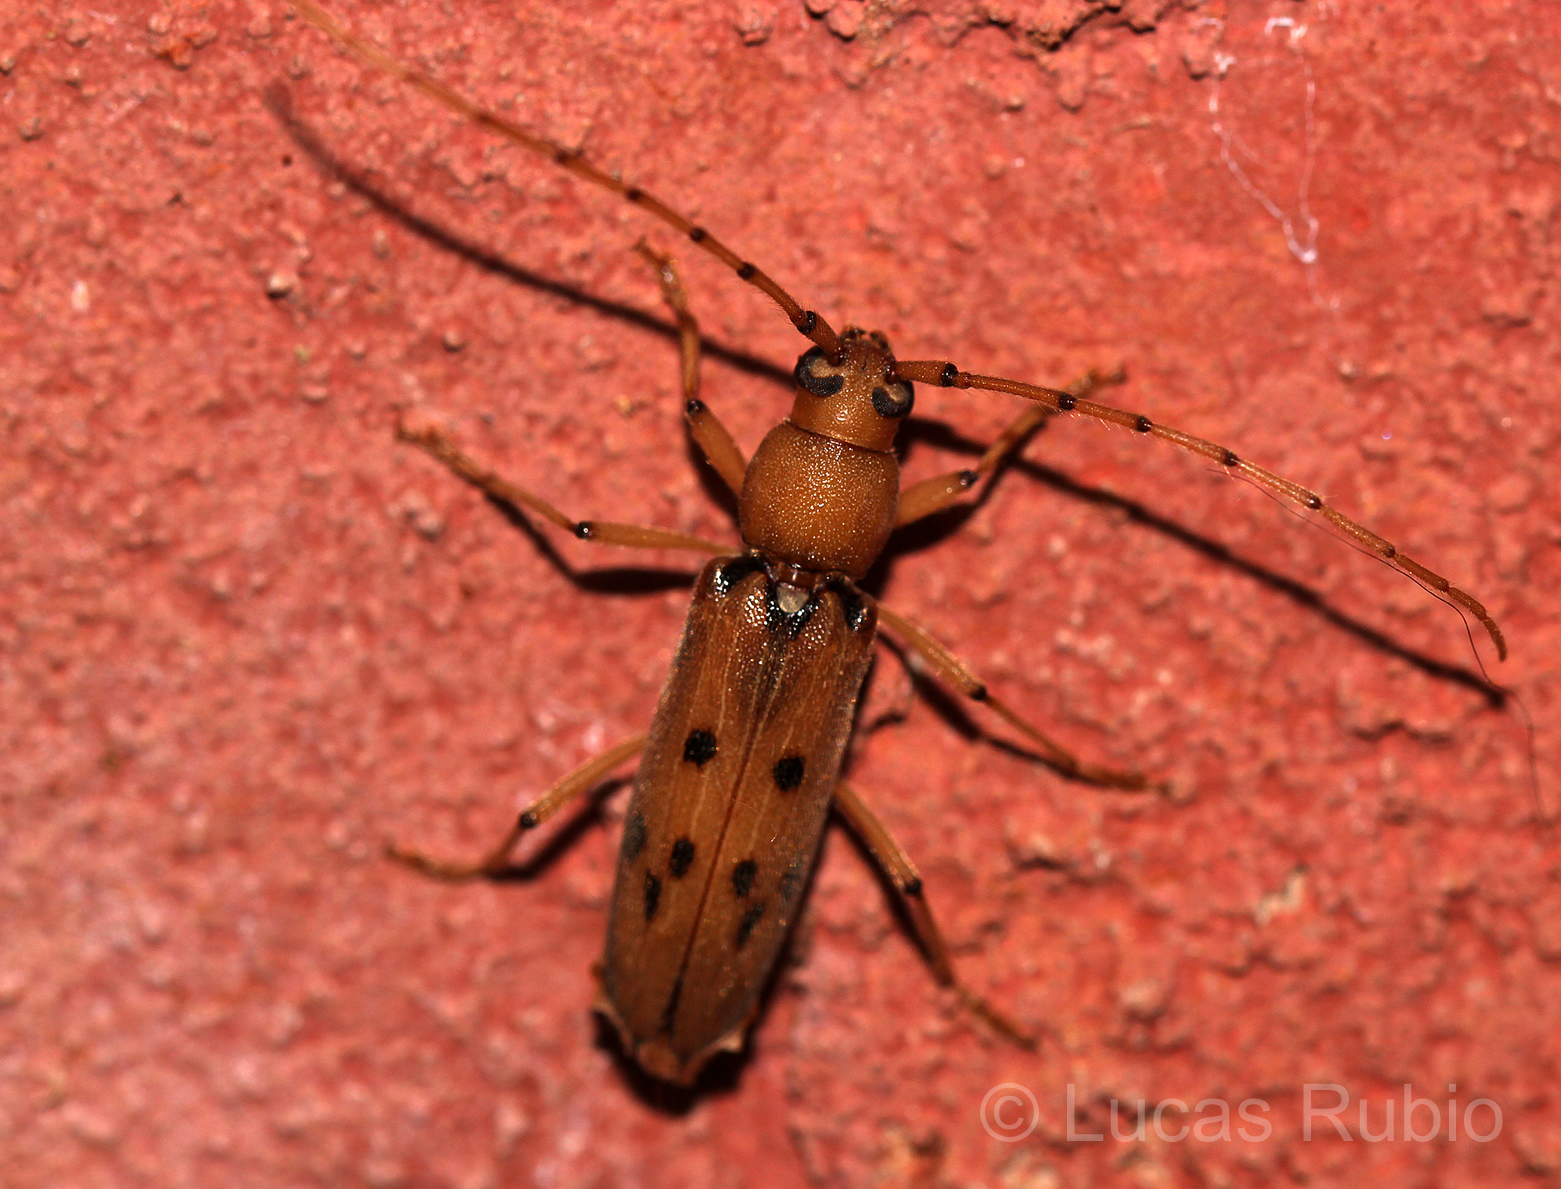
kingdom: Animalia
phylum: Arthropoda
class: Insecta
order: Coleoptera
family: Cerambycidae
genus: Achryson
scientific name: Achryson surinamum
